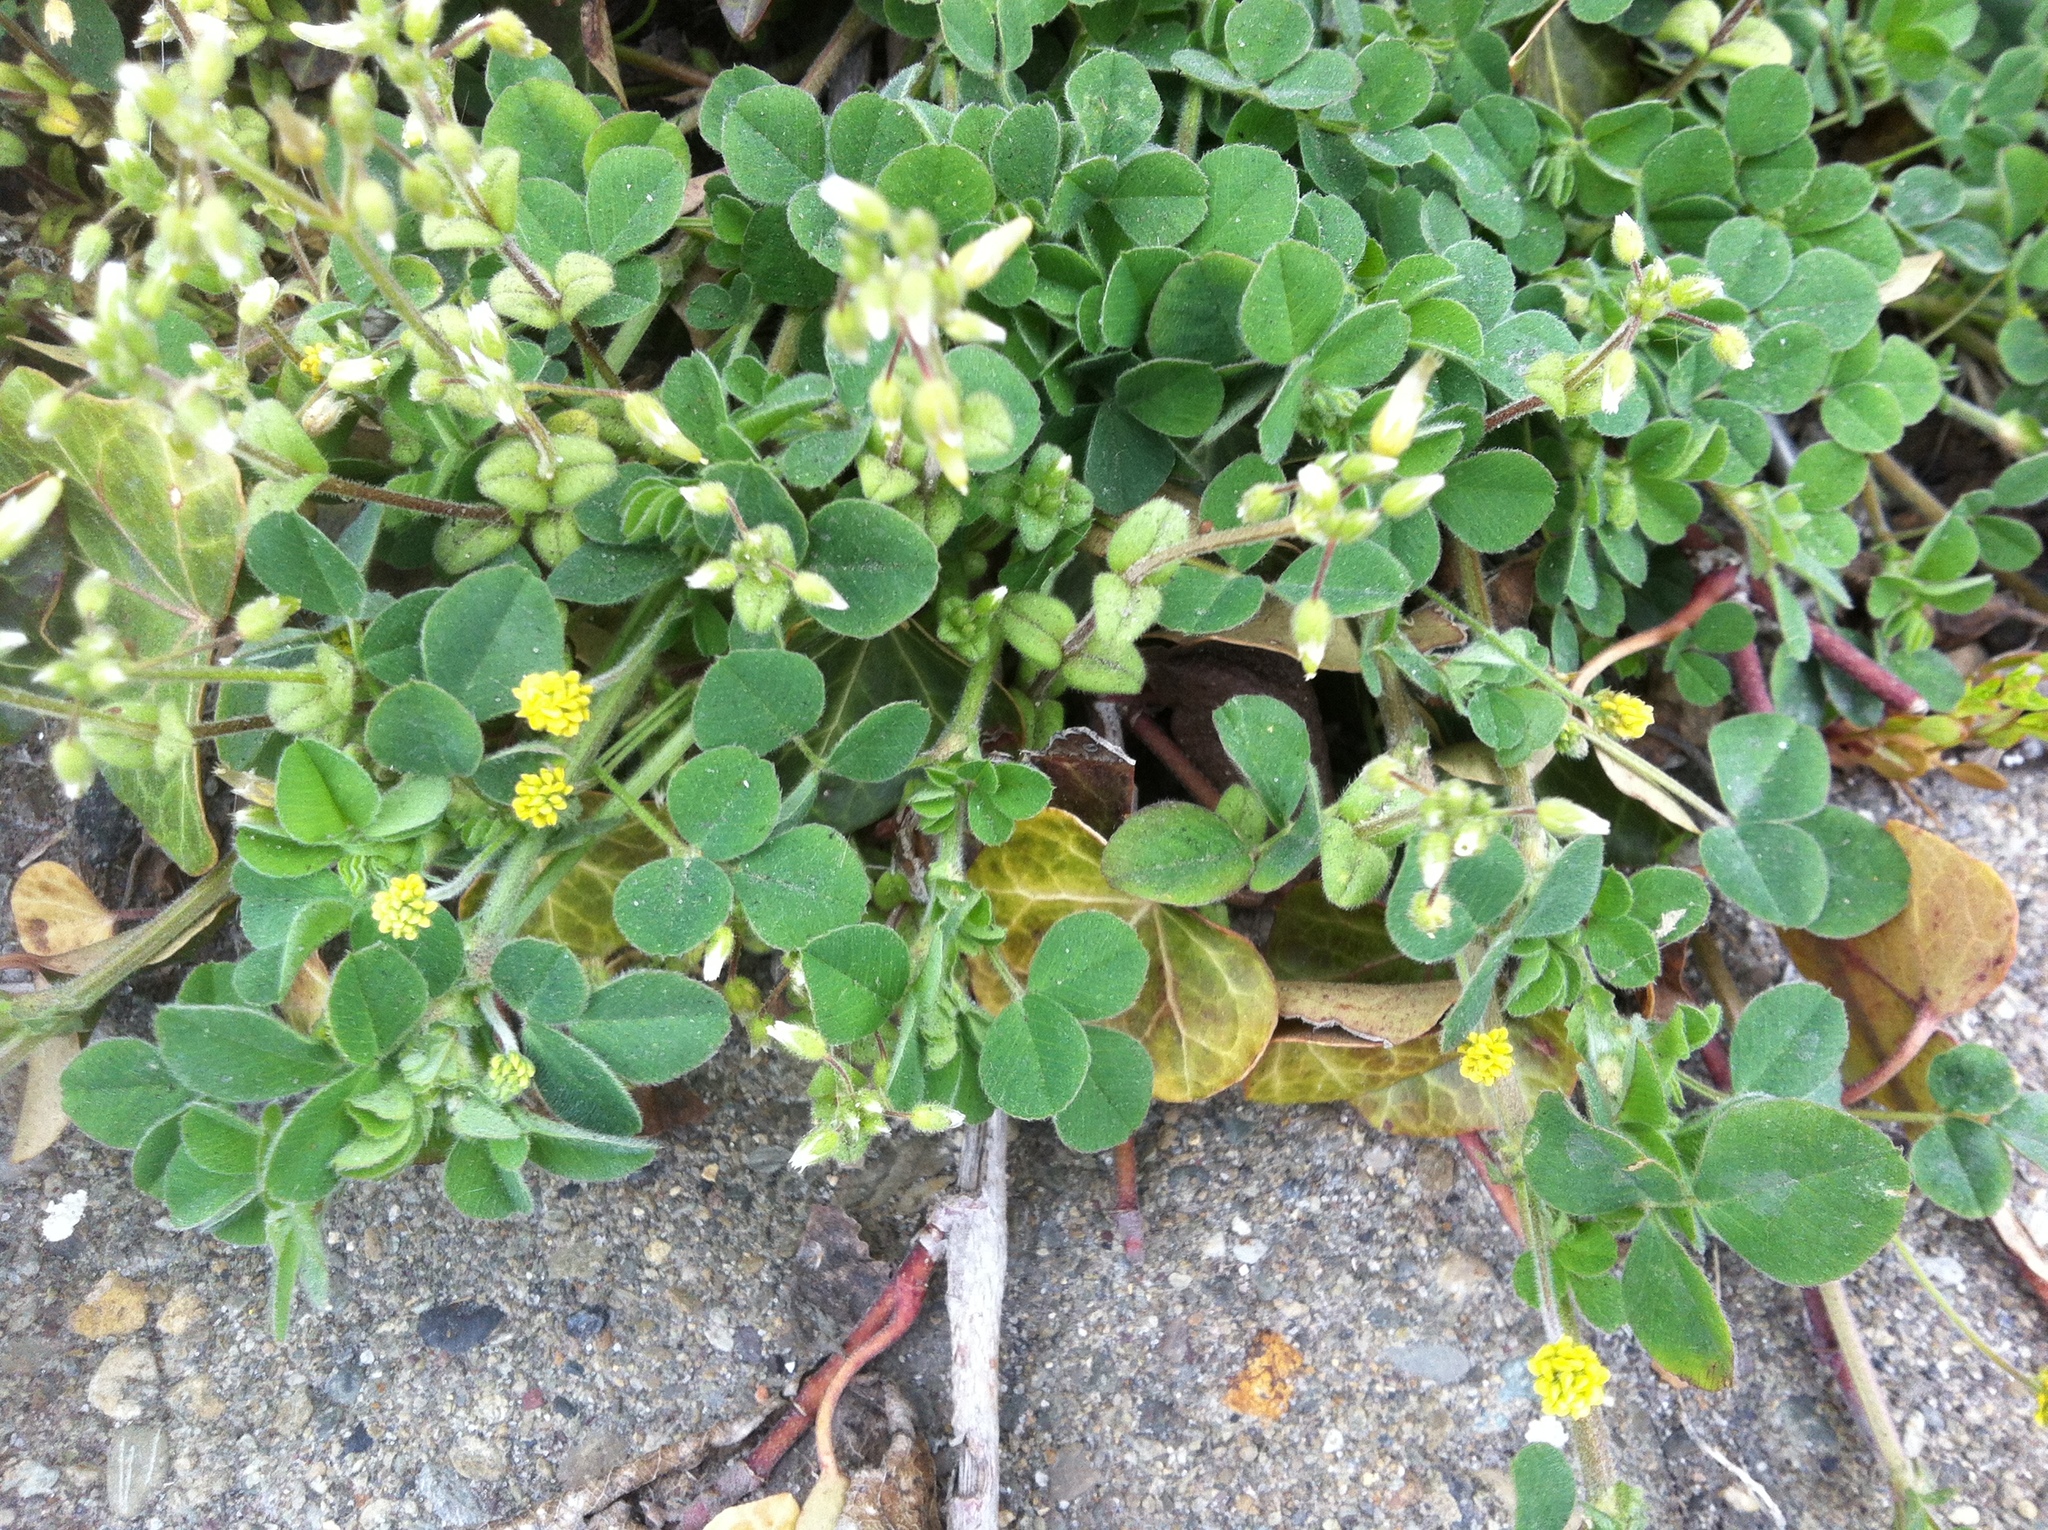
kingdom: Plantae
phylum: Tracheophyta
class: Magnoliopsida
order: Fabales
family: Fabaceae
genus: Medicago
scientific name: Medicago lupulina
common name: Black medick
